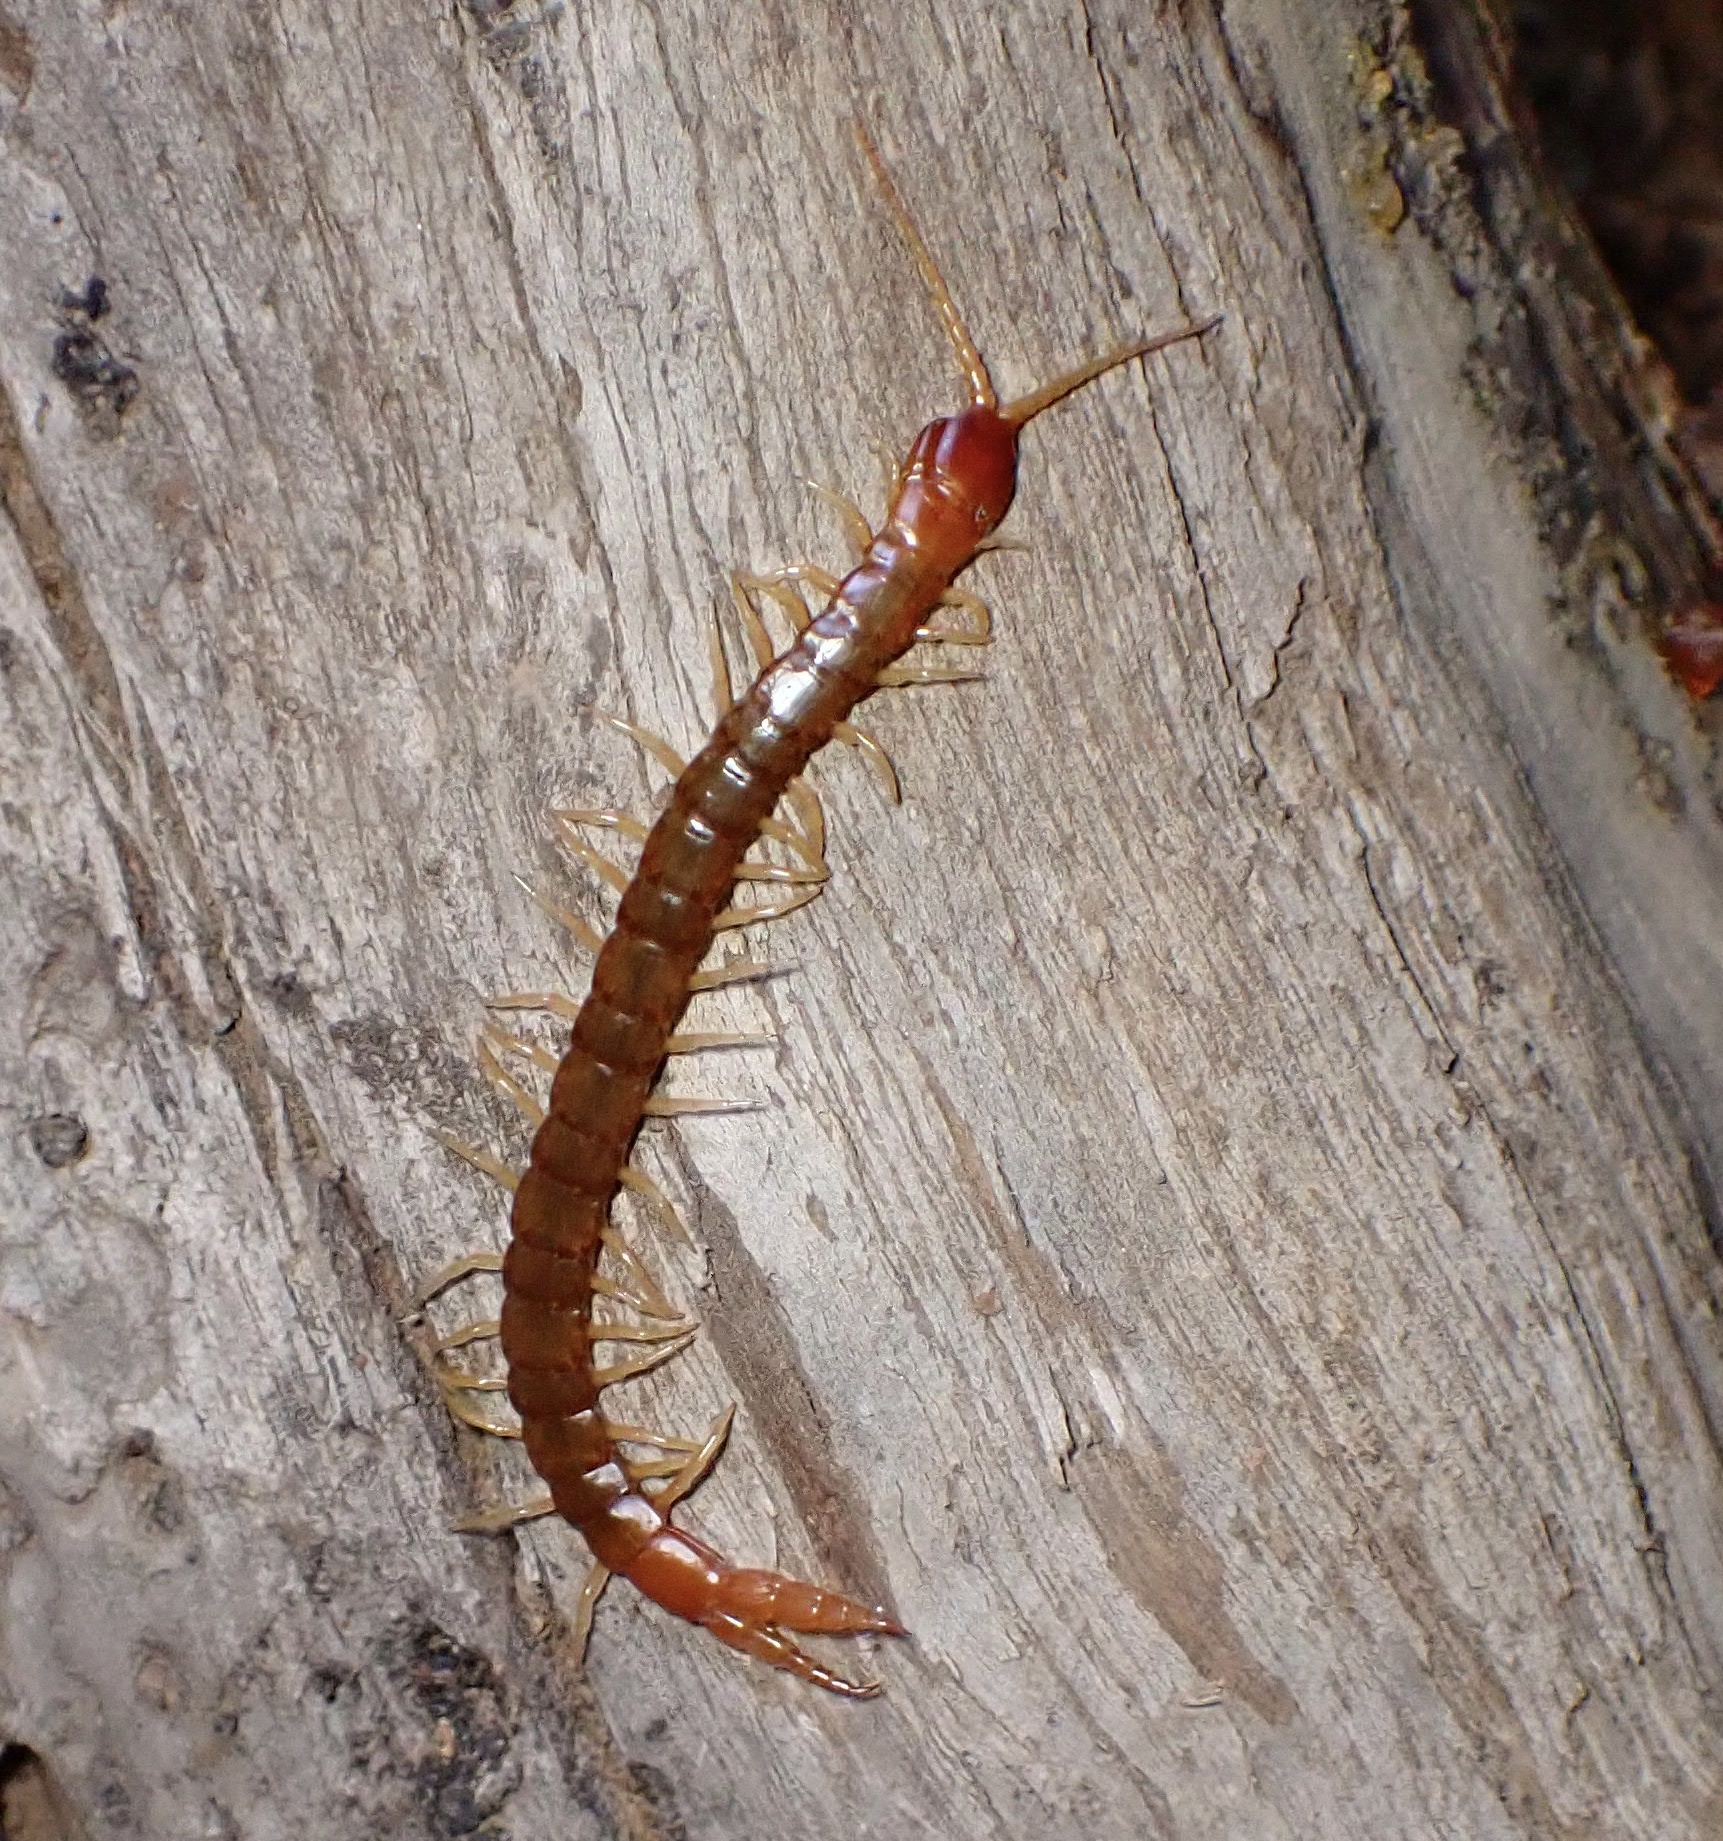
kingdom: Animalia
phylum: Arthropoda
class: Chilopoda
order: Scolopendromorpha
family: Cryptopidae
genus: Theatops
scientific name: Theatops californiensis
